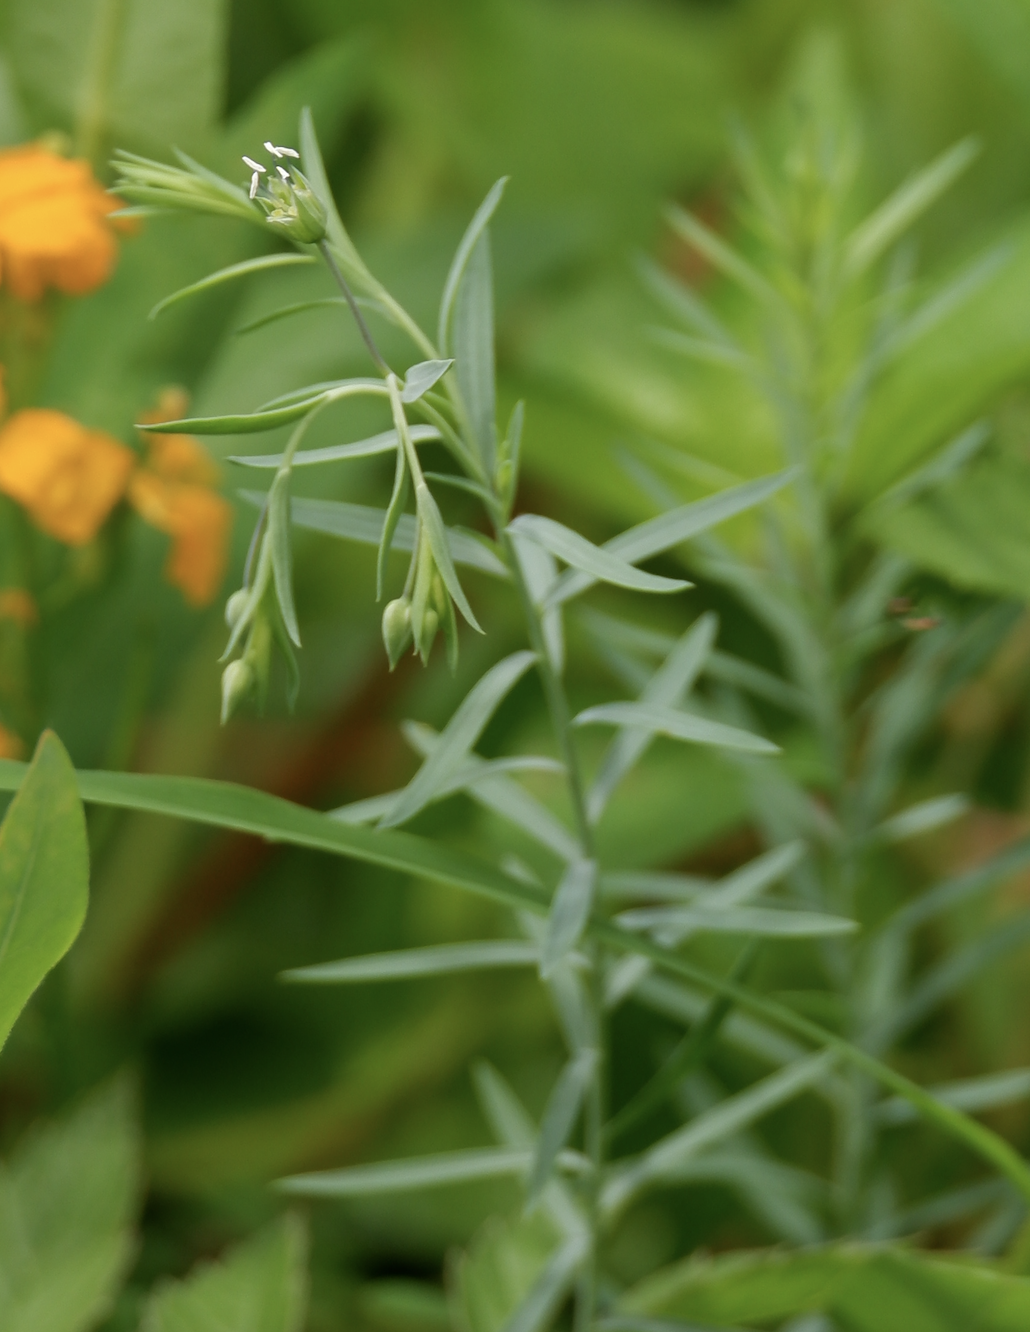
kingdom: Plantae
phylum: Tracheophyta
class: Magnoliopsida
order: Malpighiales
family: Linaceae
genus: Linum
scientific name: Linum usitatissimum
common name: Flax
